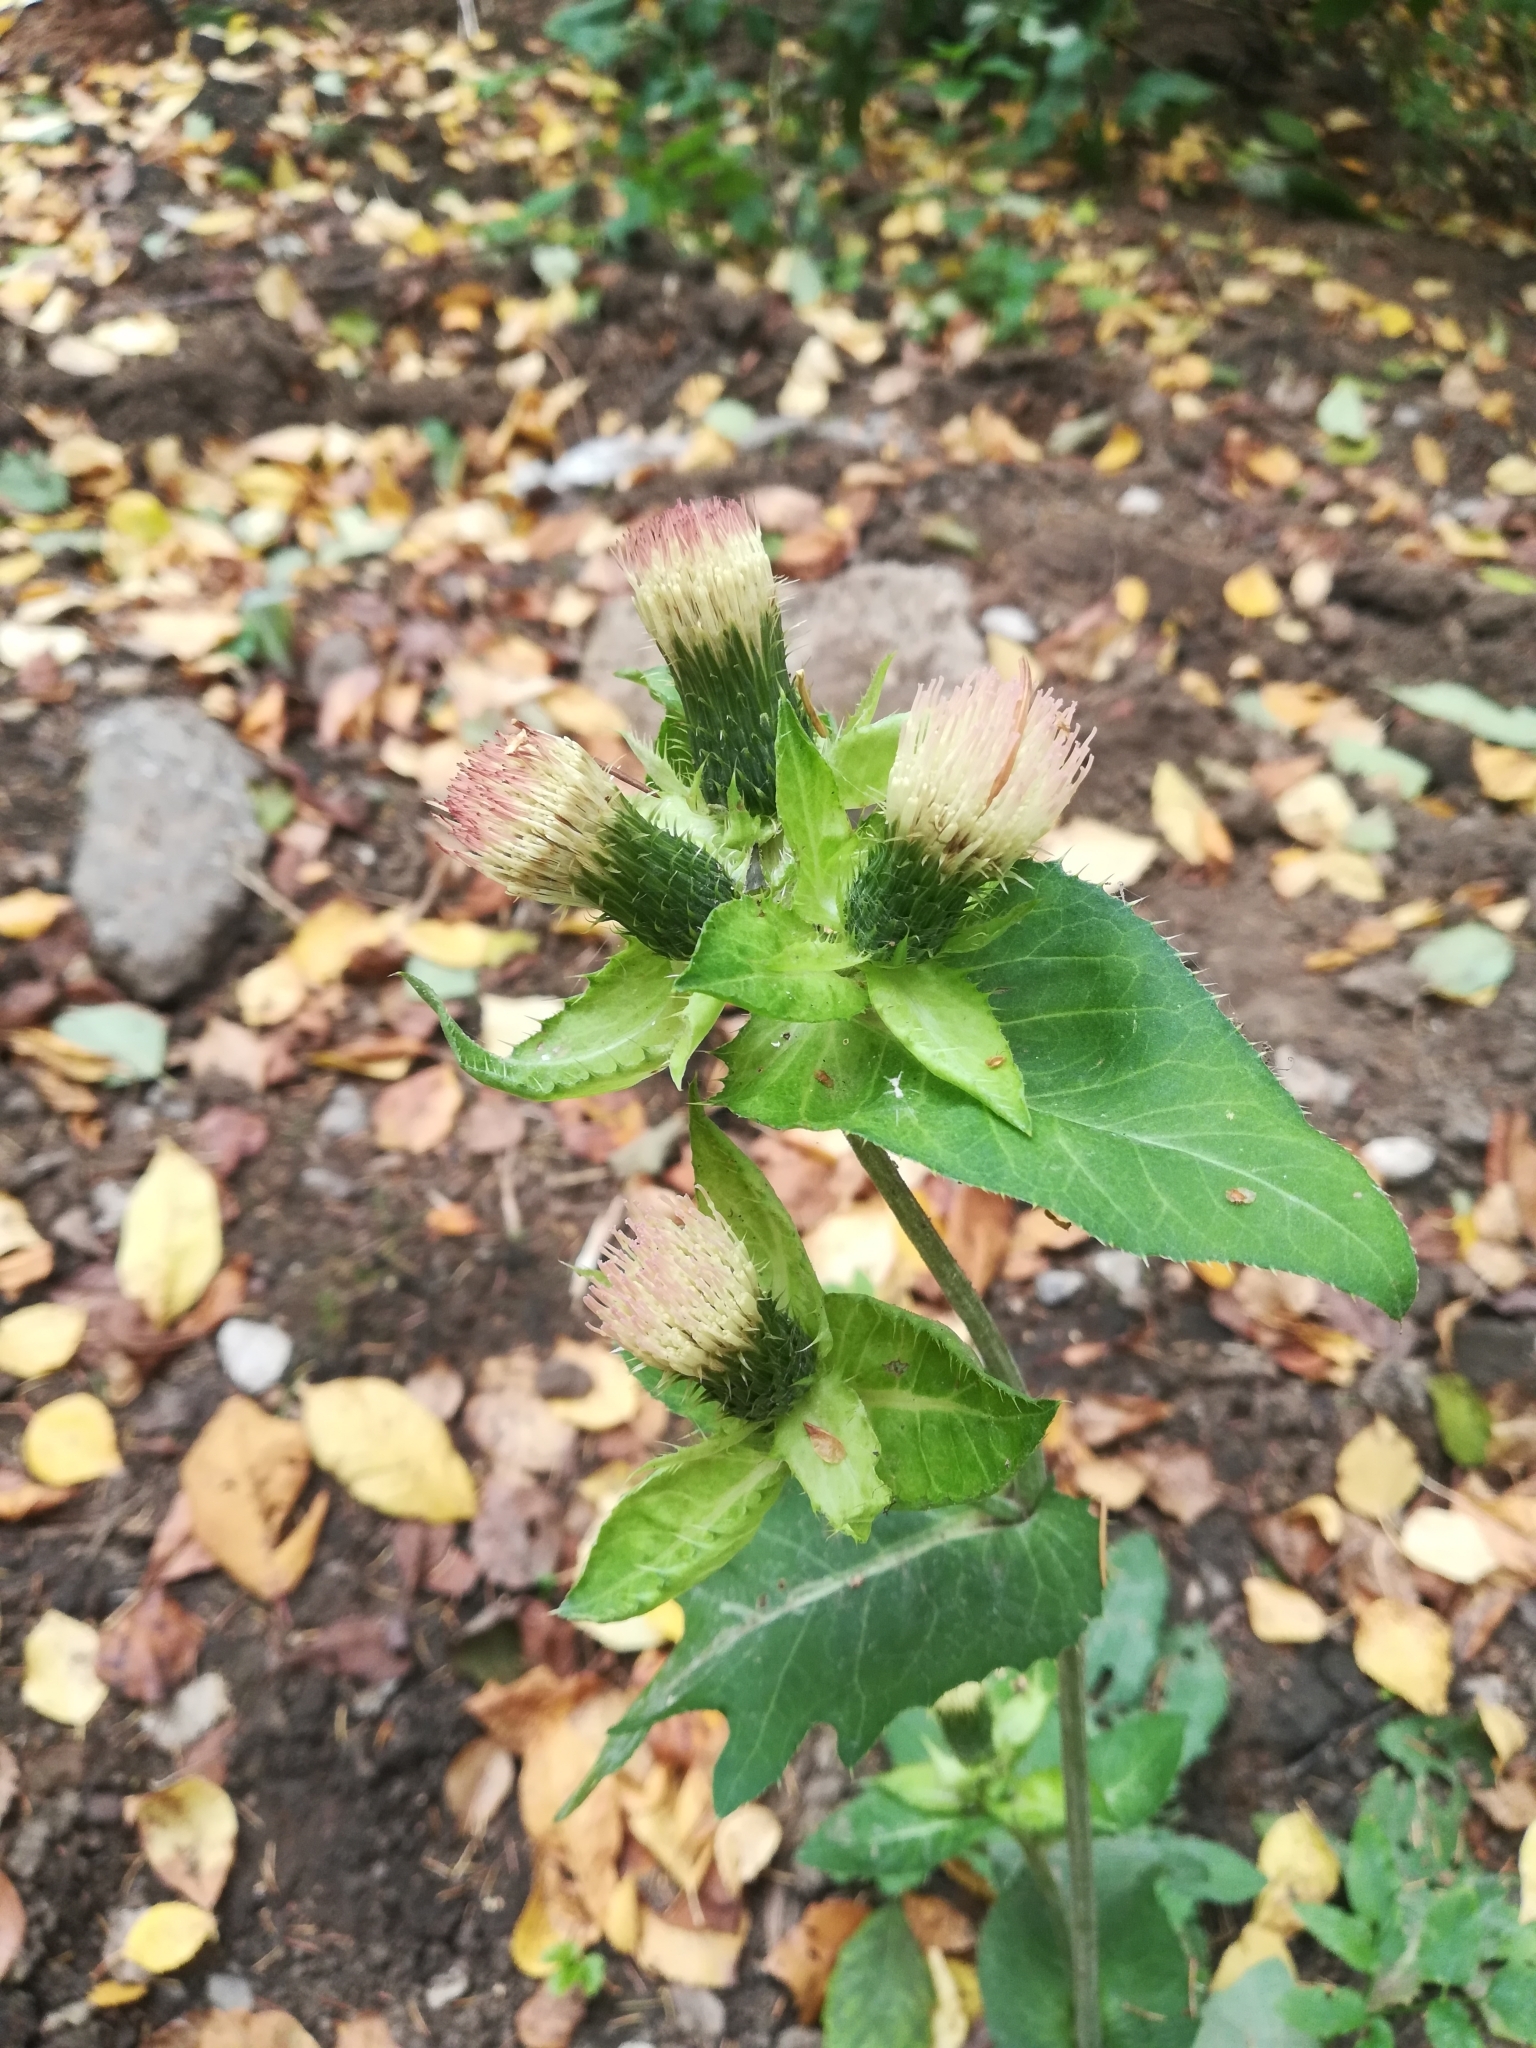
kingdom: Plantae
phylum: Tracheophyta
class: Magnoliopsida
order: Asterales
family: Asteraceae
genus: Cirsium
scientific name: Cirsium oleraceum
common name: Cabbage thistle
